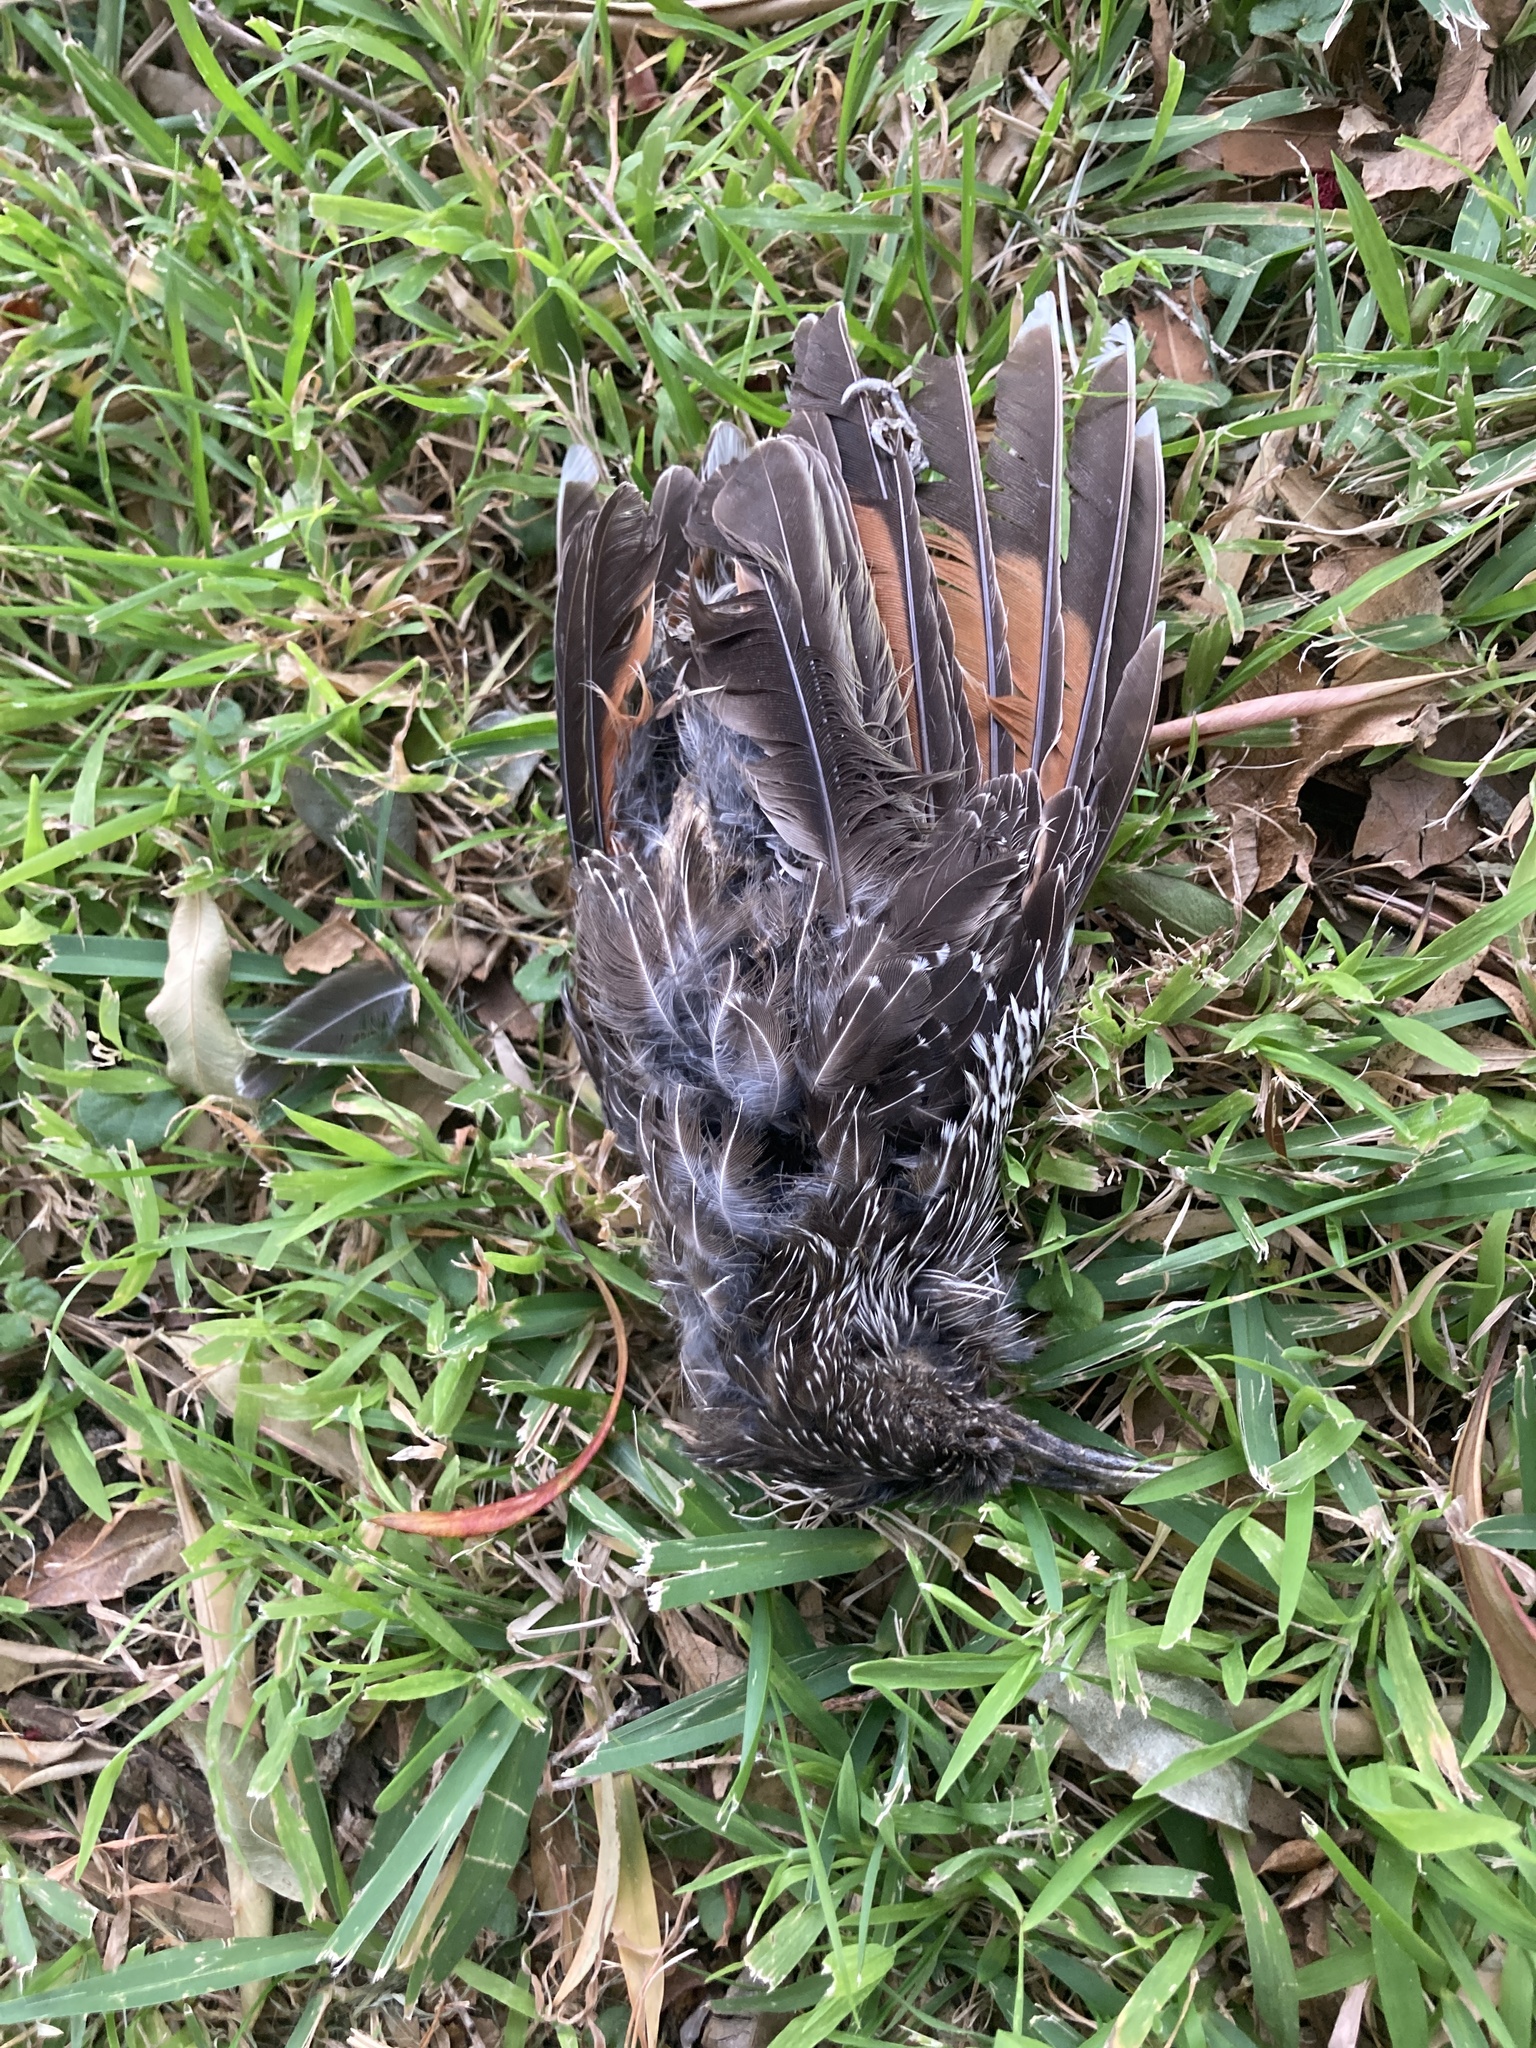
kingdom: Animalia
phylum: Chordata
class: Aves
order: Passeriformes
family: Meliphagidae
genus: Anthochaera
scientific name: Anthochaera chrysoptera
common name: Little wattlebird
